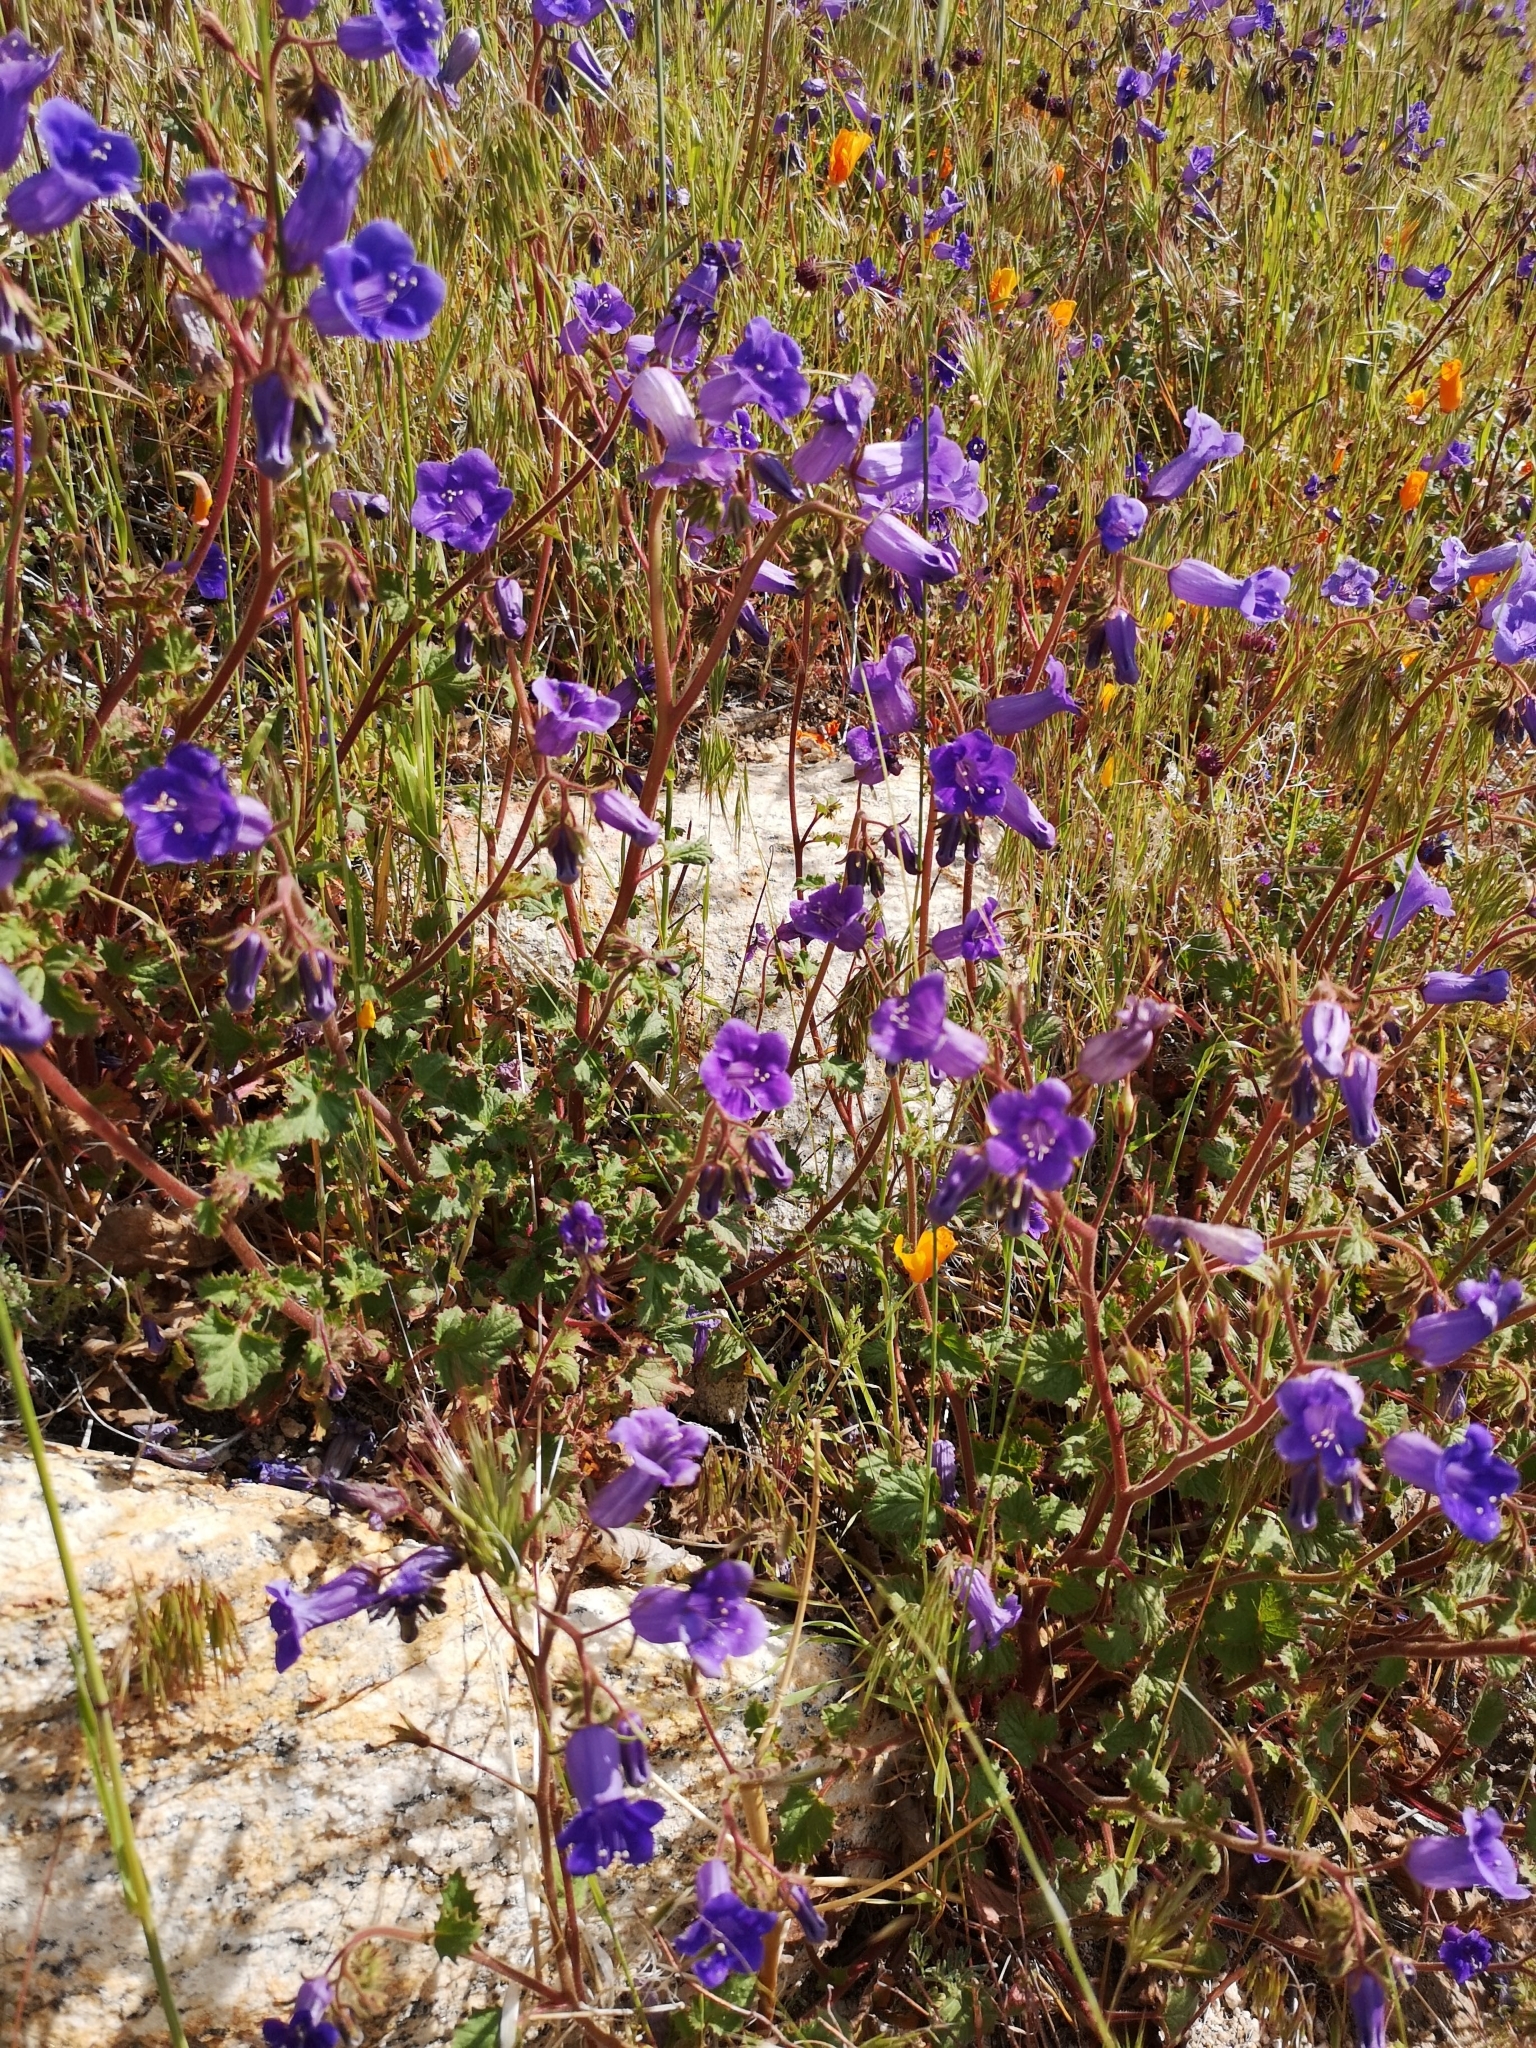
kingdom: Plantae
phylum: Tracheophyta
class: Magnoliopsida
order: Boraginales
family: Hydrophyllaceae
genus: Phacelia
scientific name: Phacelia minor
